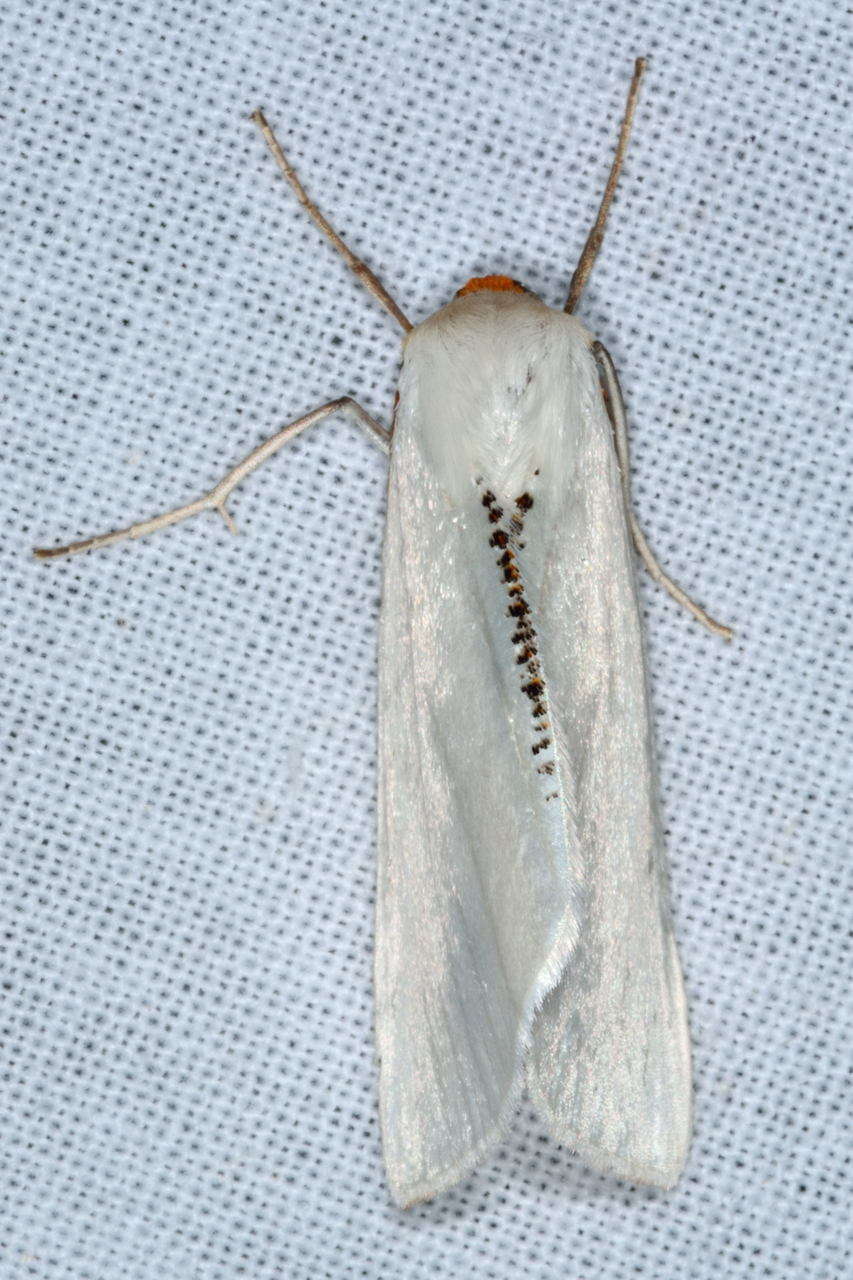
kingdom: Animalia
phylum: Arthropoda
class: Insecta
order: Lepidoptera
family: Geometridae
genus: Thalaina
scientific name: Thalaina selenaea
